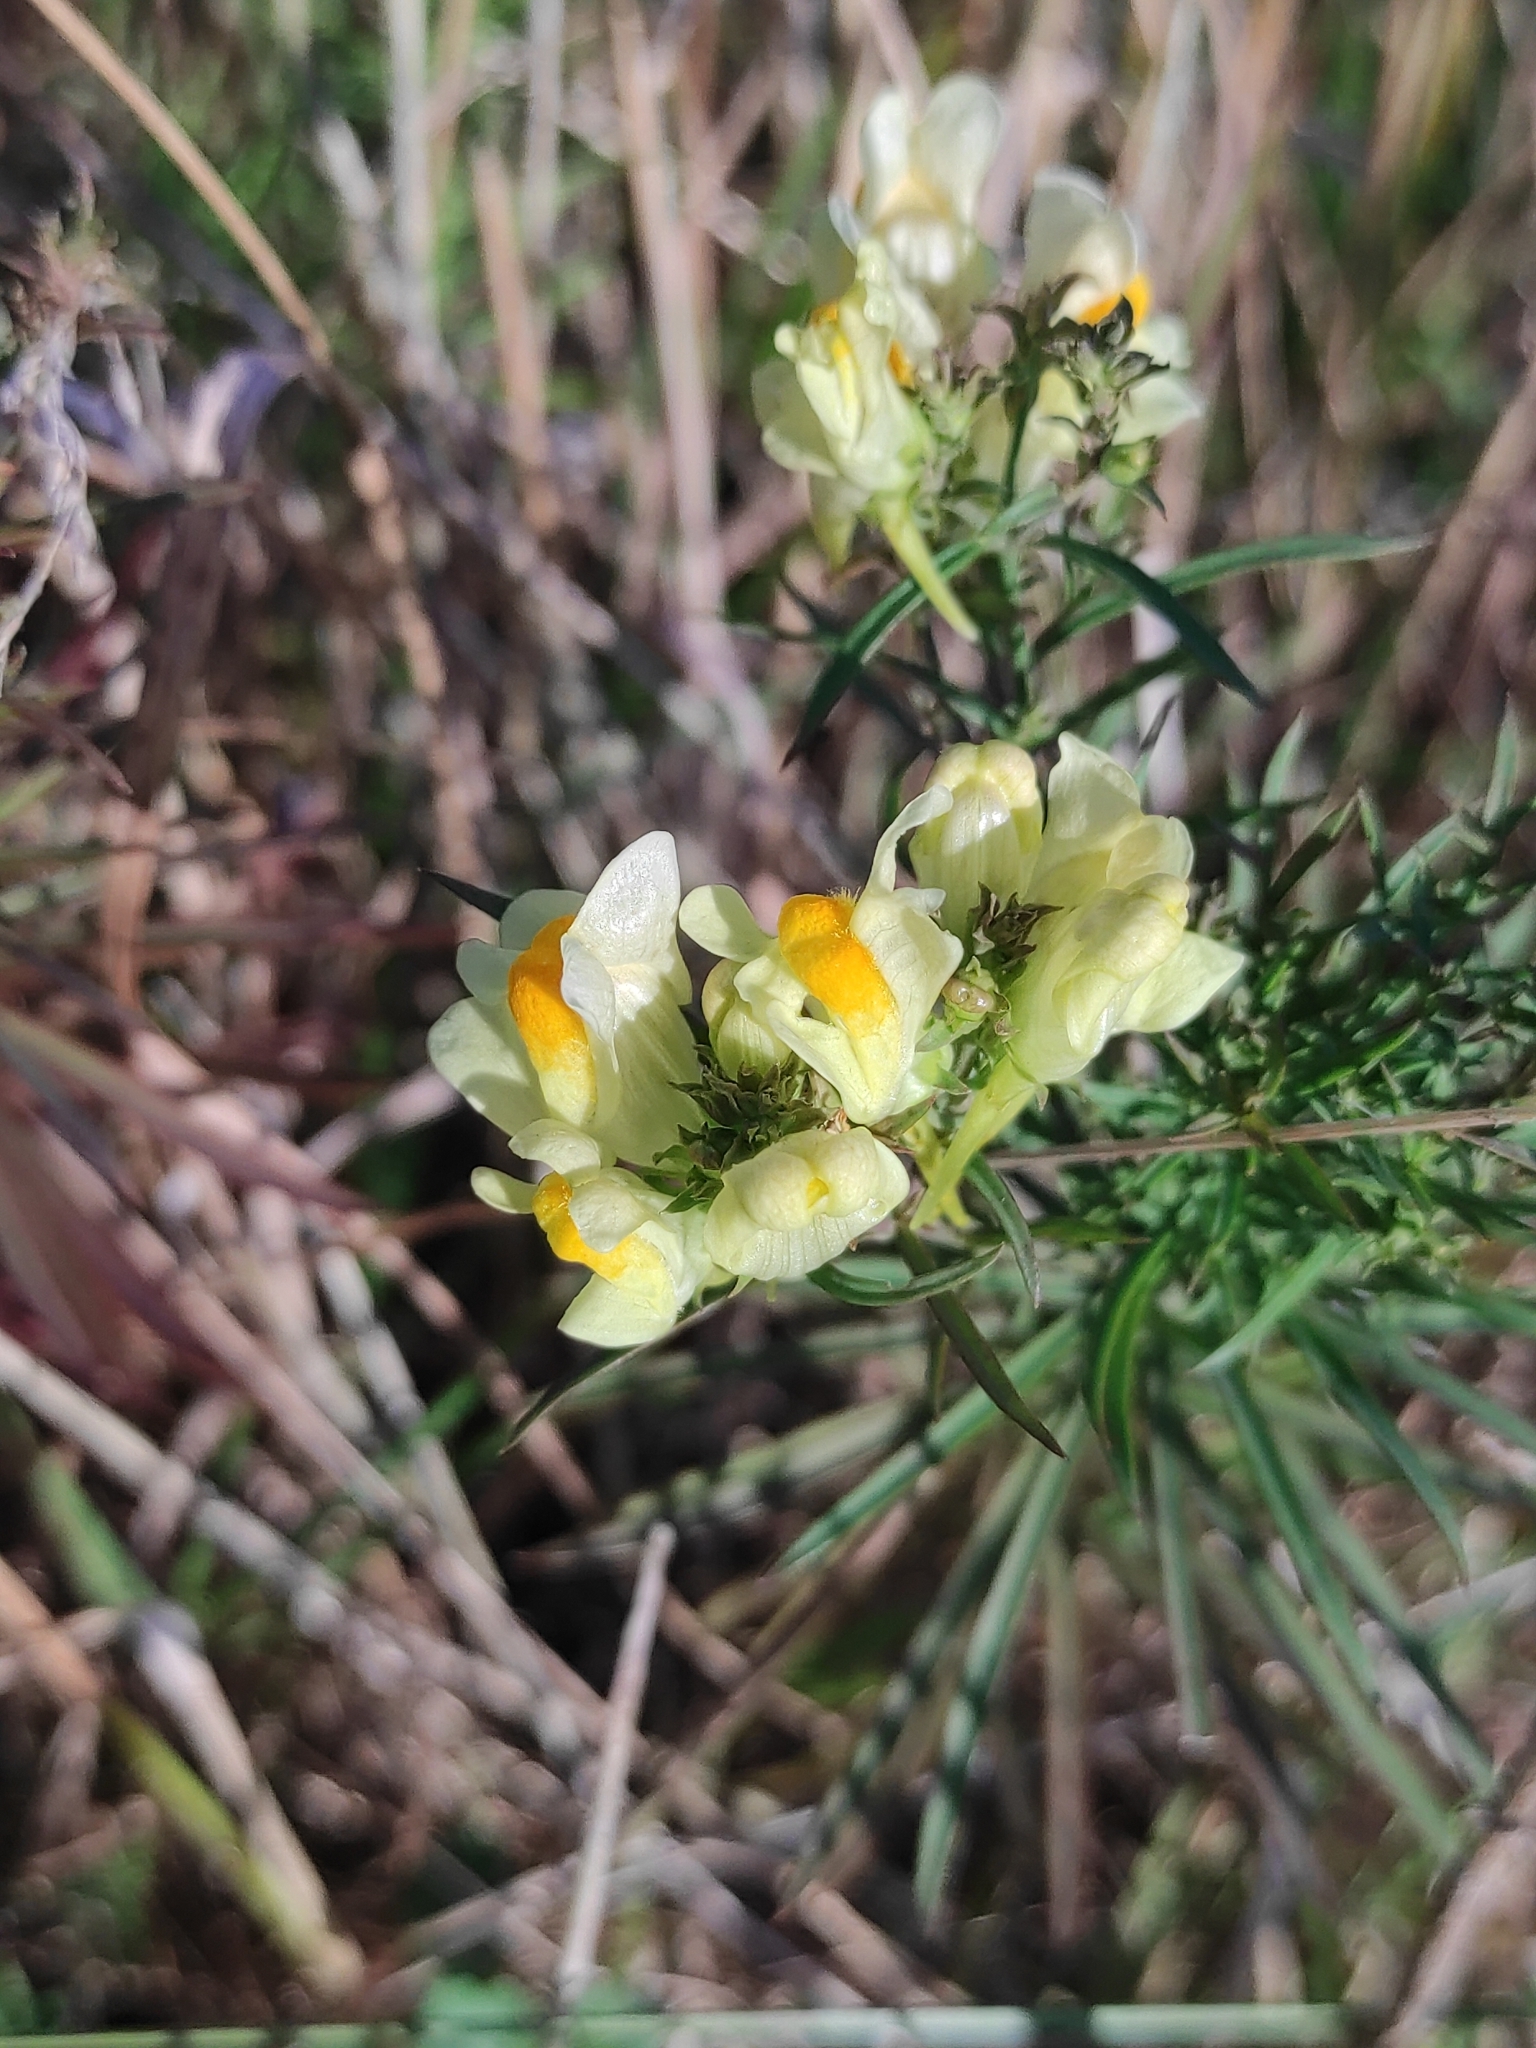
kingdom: Plantae
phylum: Tracheophyta
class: Magnoliopsida
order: Lamiales
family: Plantaginaceae
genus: Linaria
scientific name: Linaria vulgaris
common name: Butter and eggs
